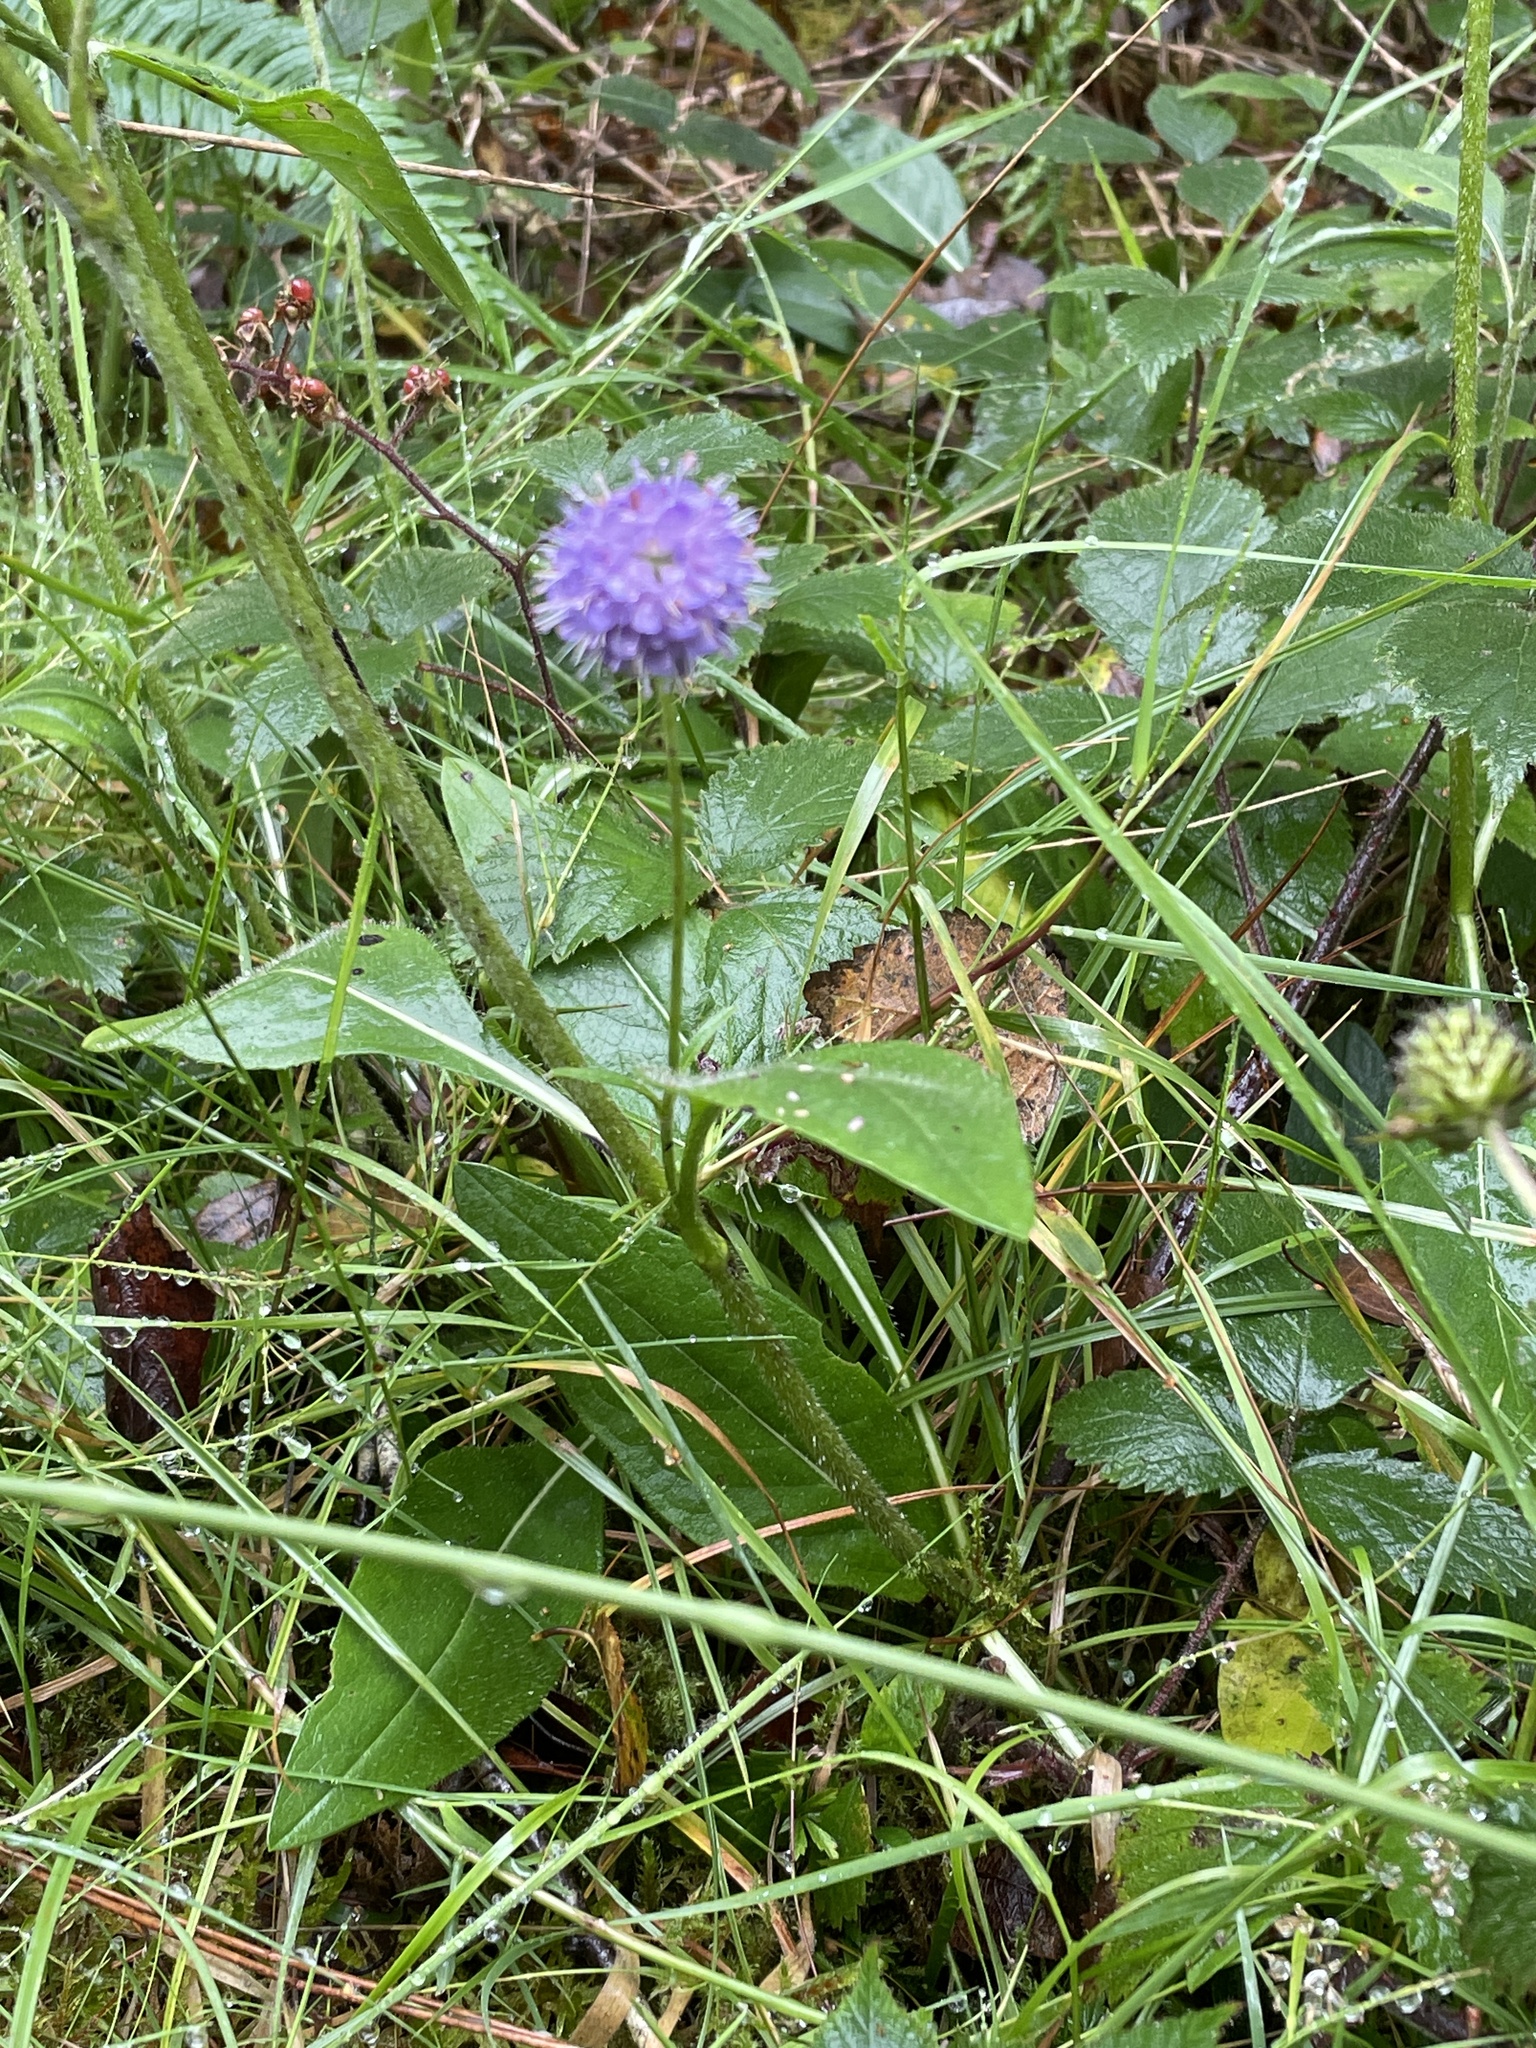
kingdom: Plantae
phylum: Tracheophyta
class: Magnoliopsida
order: Dipsacales
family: Caprifoliaceae
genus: Succisa
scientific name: Succisa pratensis
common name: Devil's-bit
